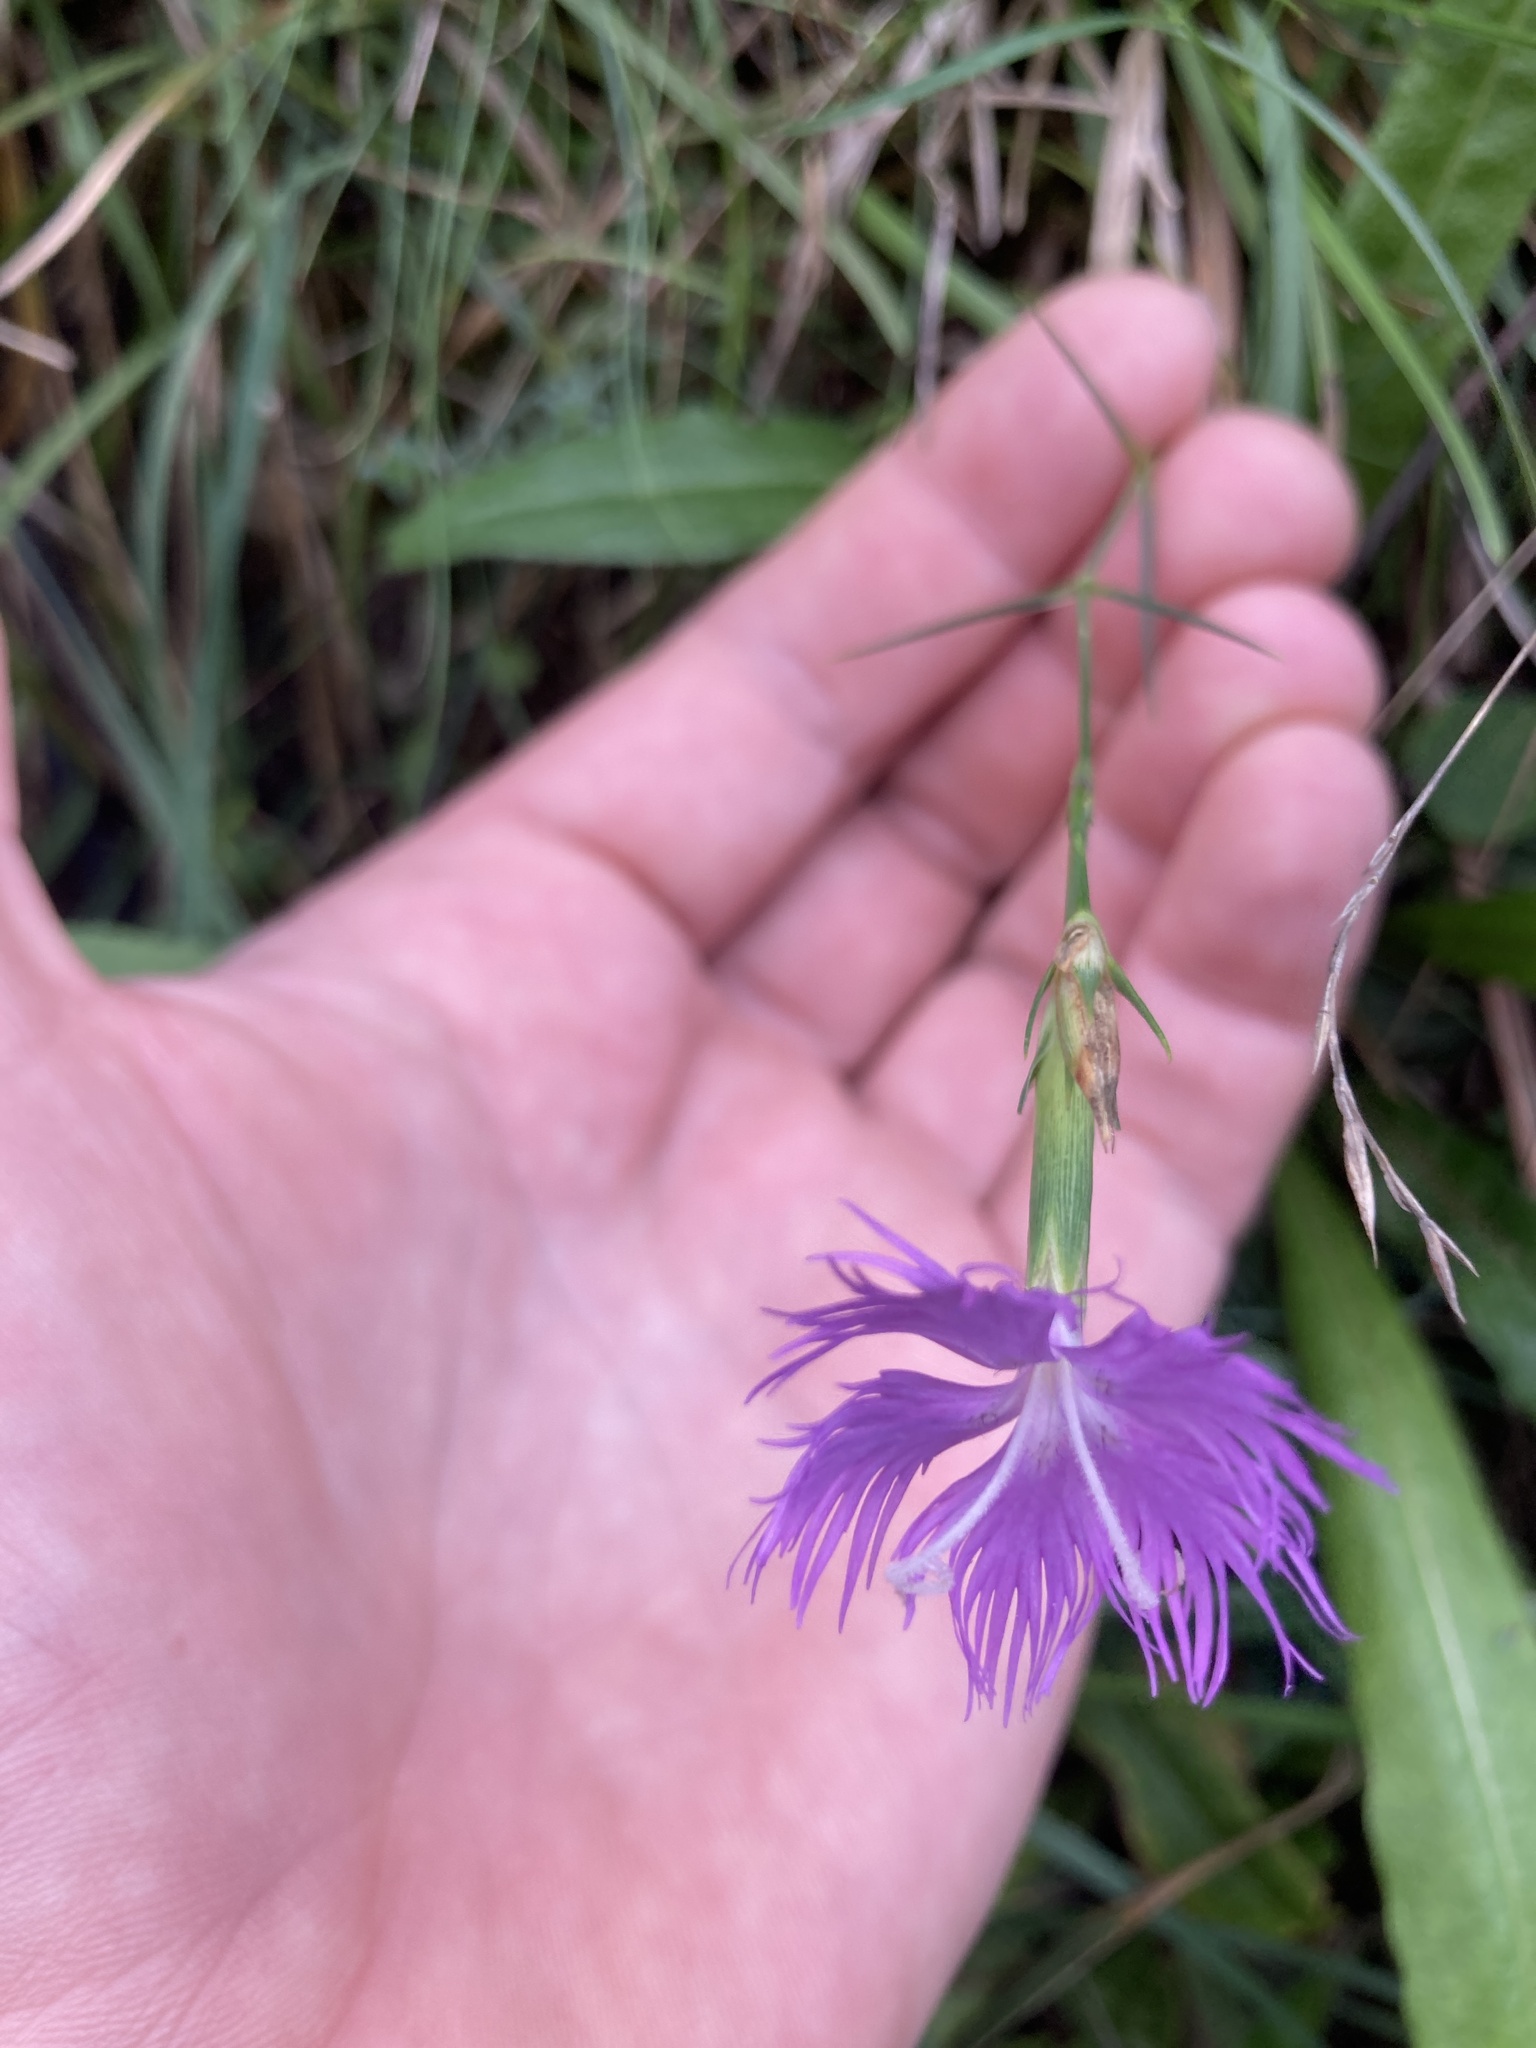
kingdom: Plantae
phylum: Tracheophyta
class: Magnoliopsida
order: Caryophyllales
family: Caryophyllaceae
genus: Dianthus
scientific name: Dianthus hyssopifolius
